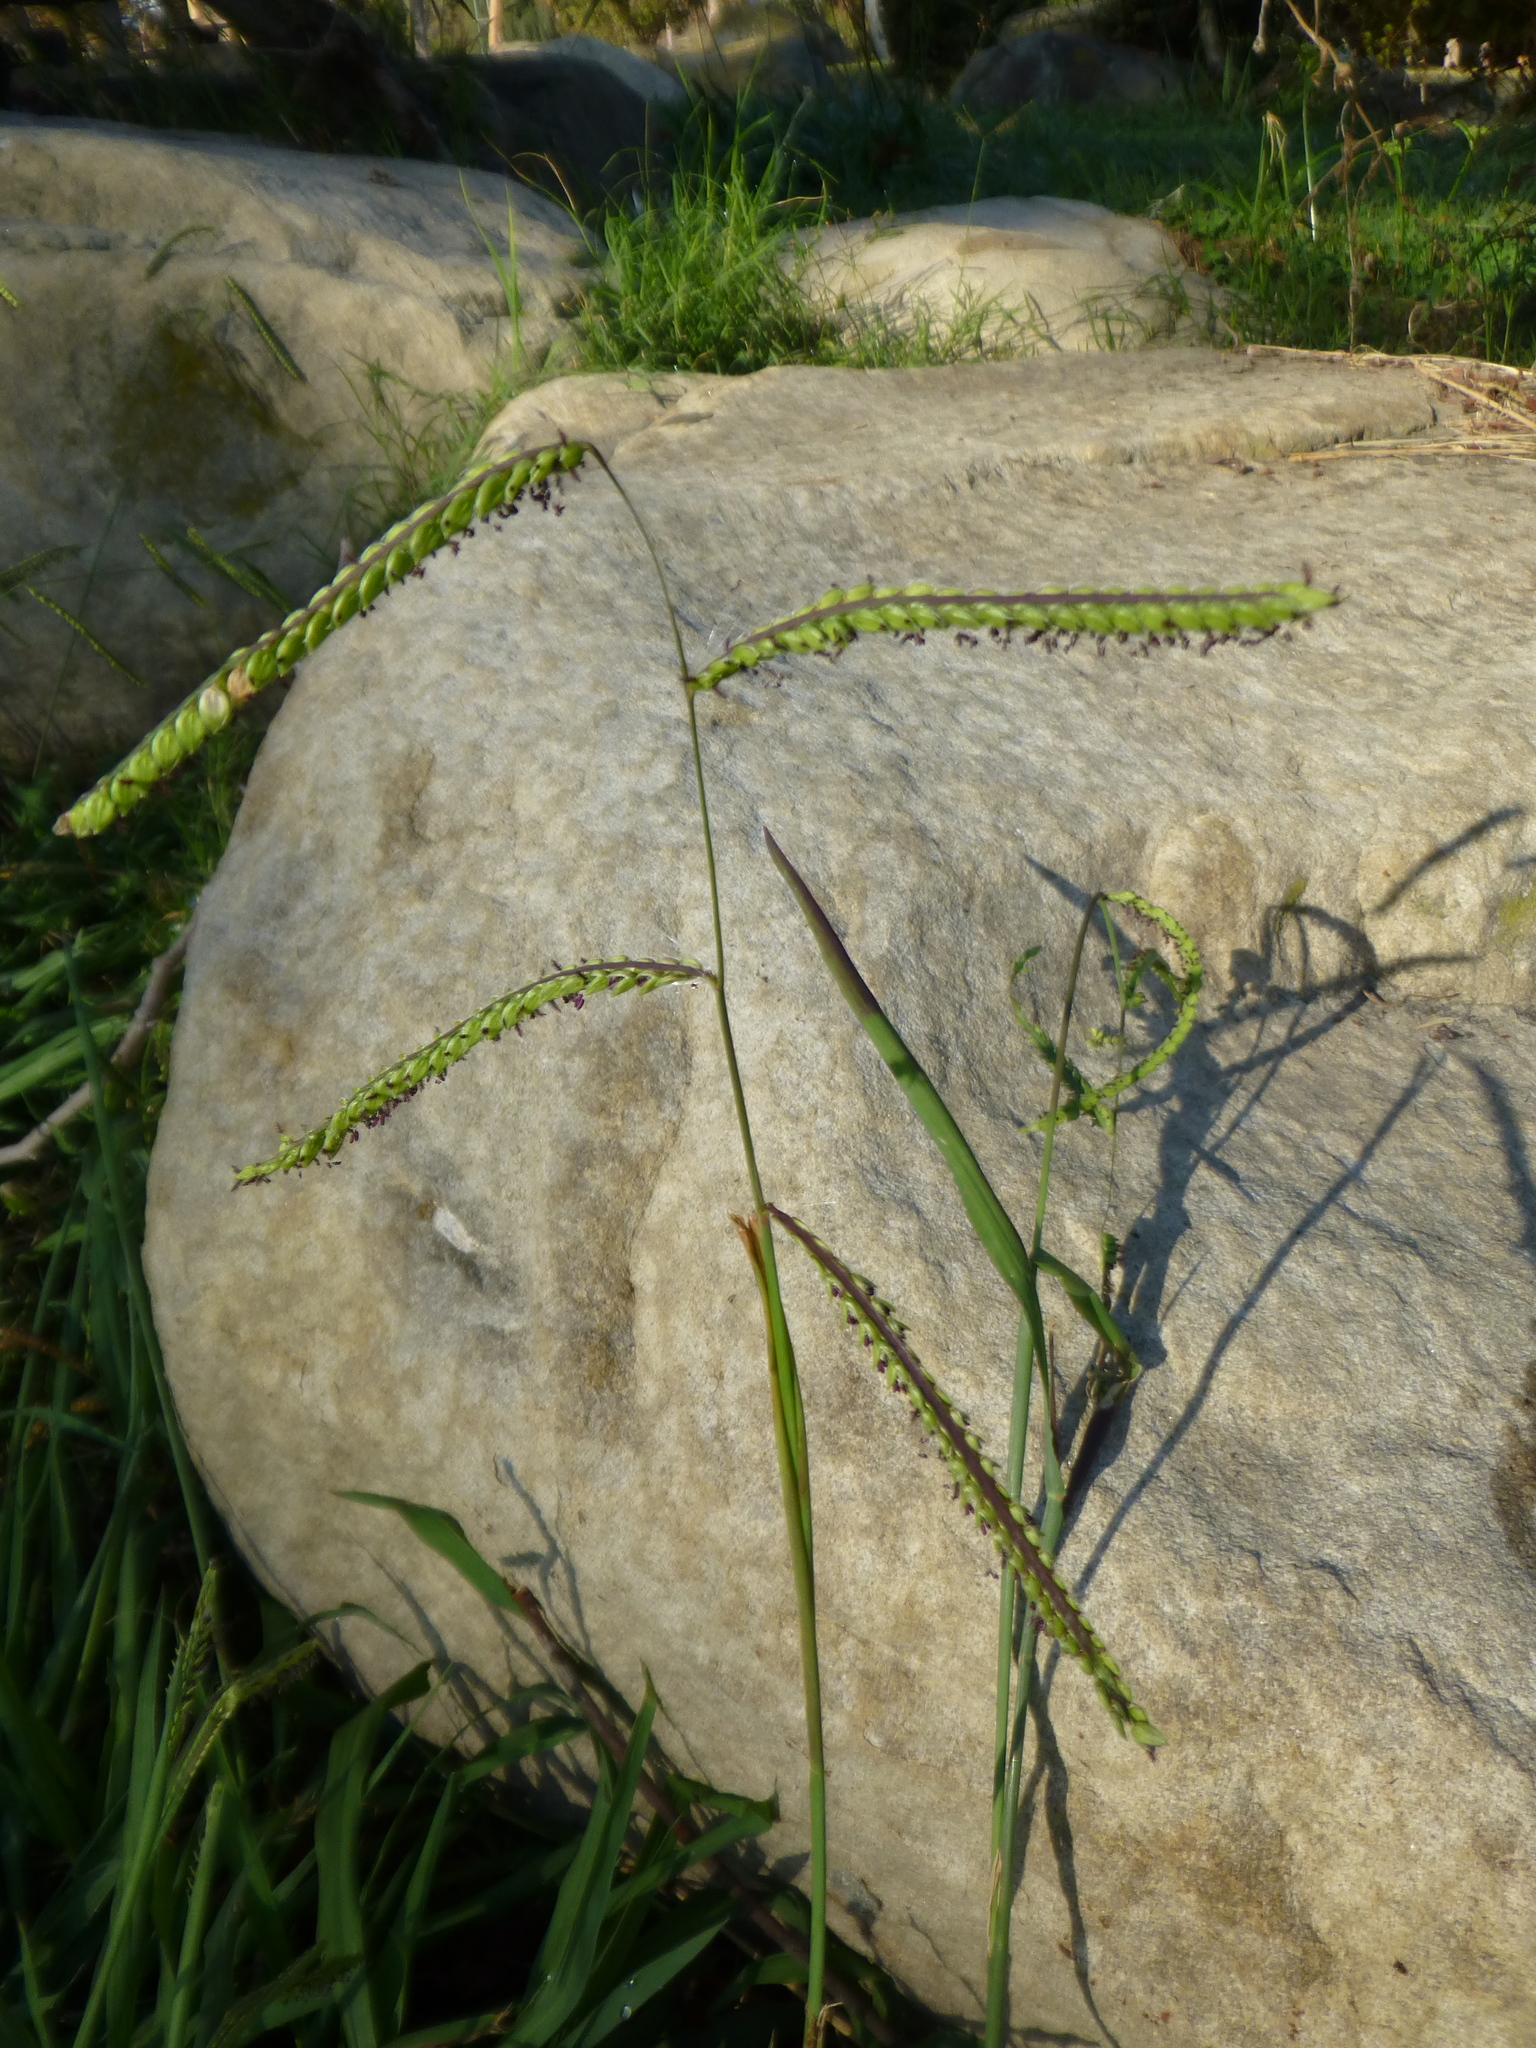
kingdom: Plantae
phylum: Tracheophyta
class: Liliopsida
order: Poales
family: Poaceae
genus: Paspalum
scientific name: Paspalum dilatatum
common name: Dallisgrass
